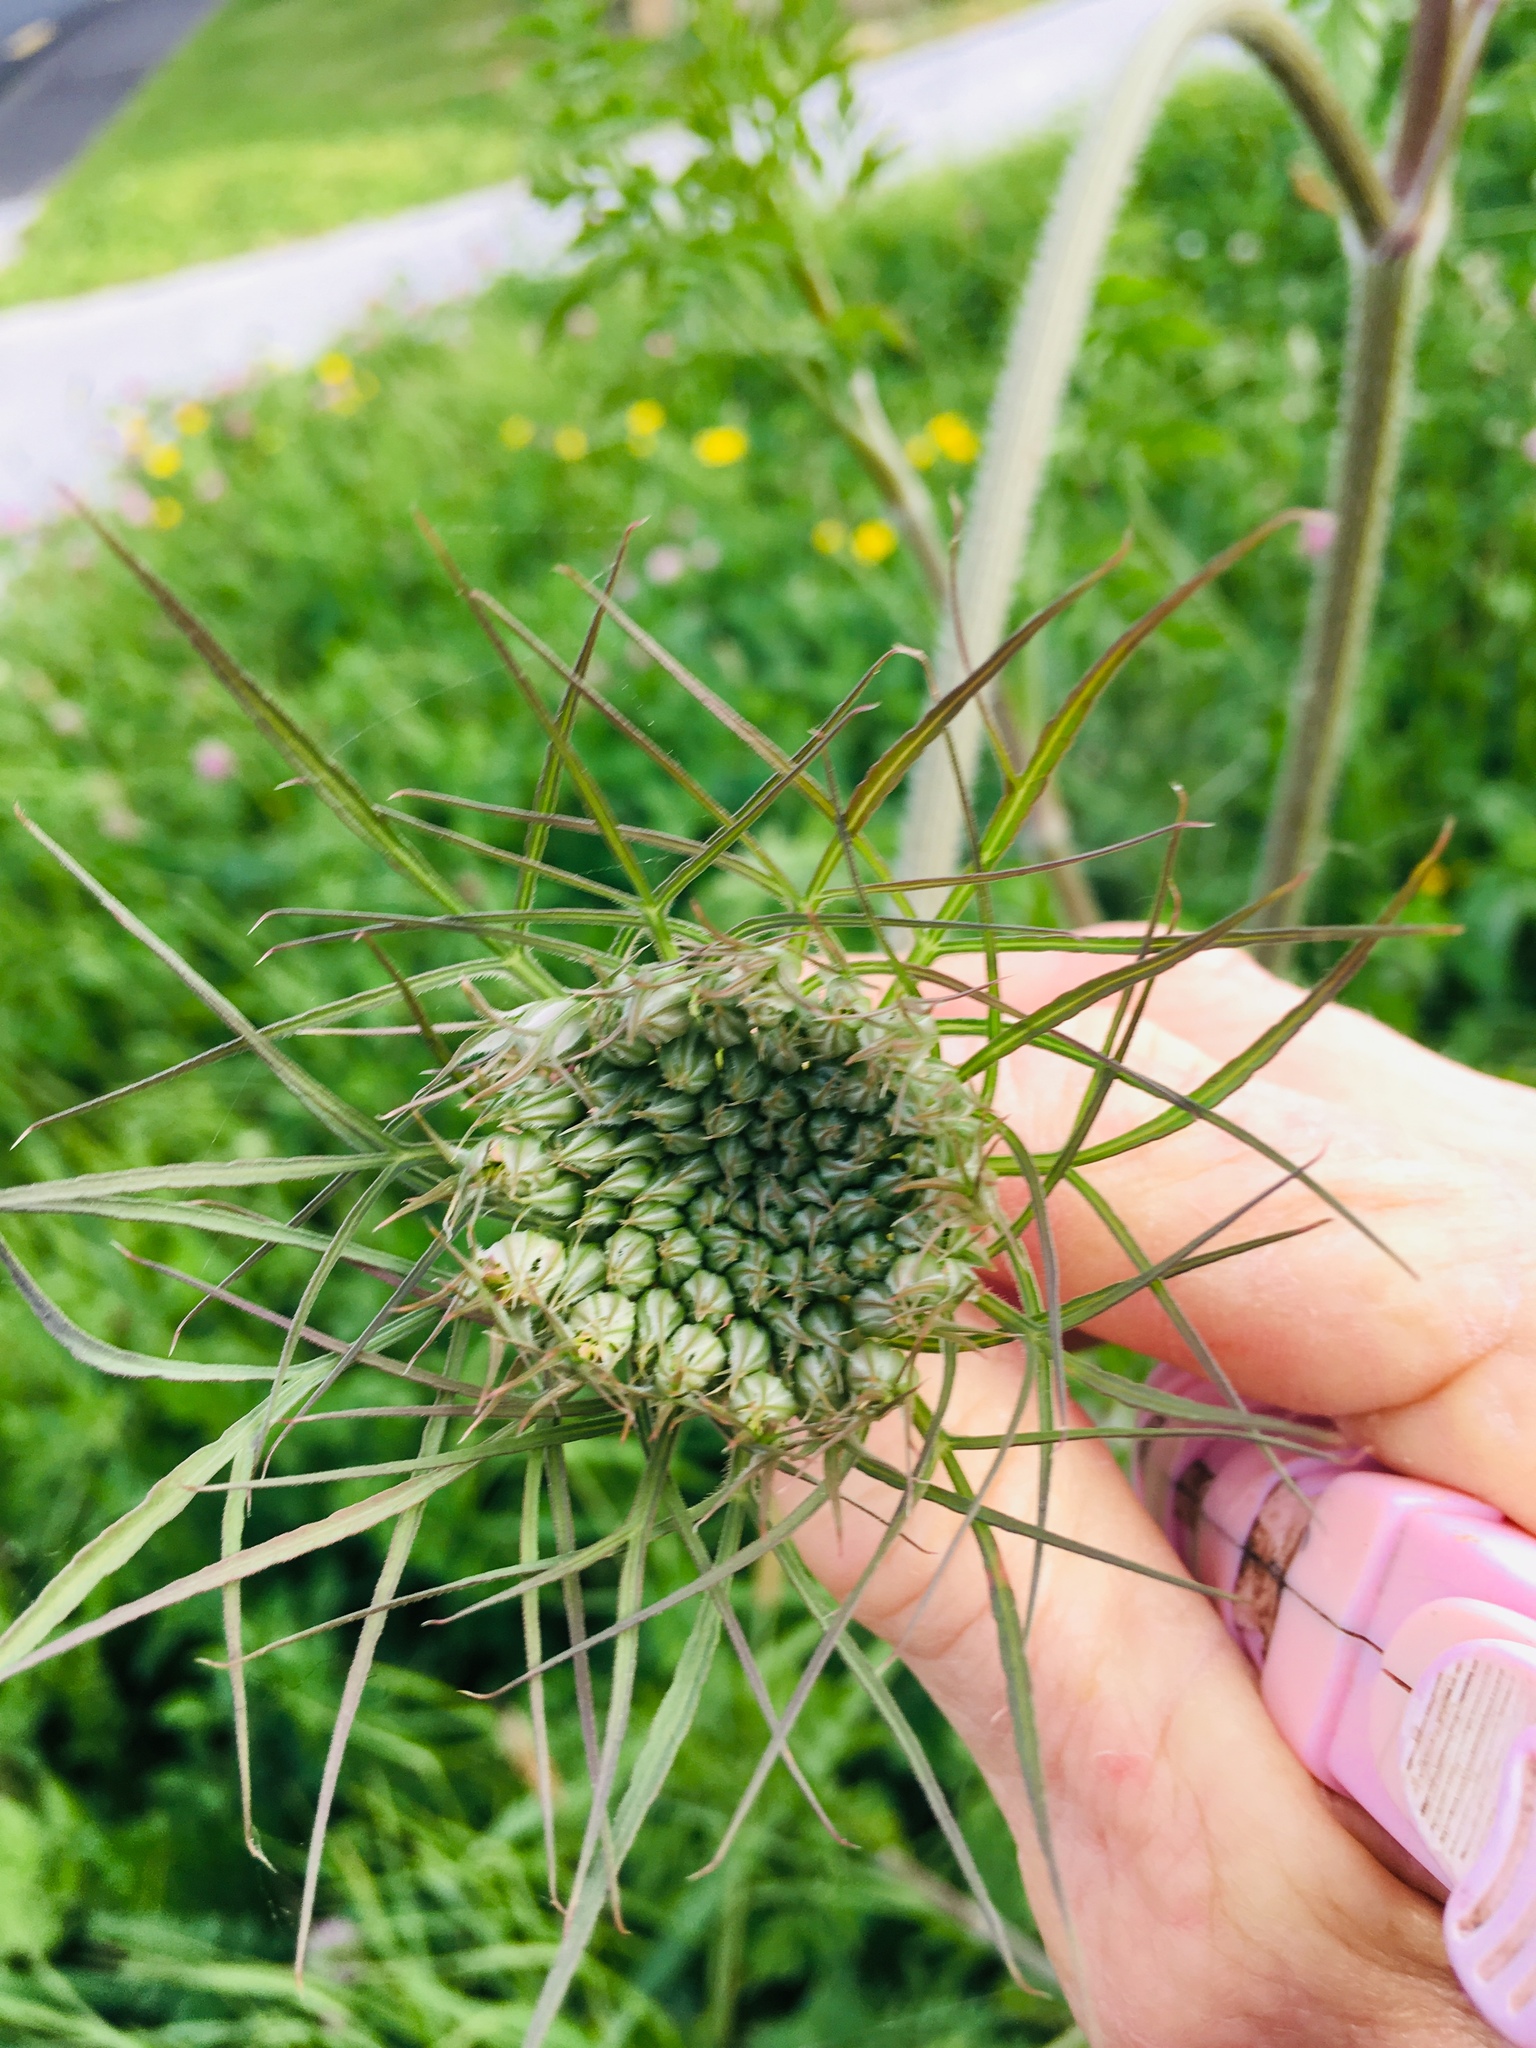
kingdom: Plantae
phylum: Tracheophyta
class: Magnoliopsida
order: Apiales
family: Apiaceae
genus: Daucus
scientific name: Daucus carota
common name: Wild carrot
